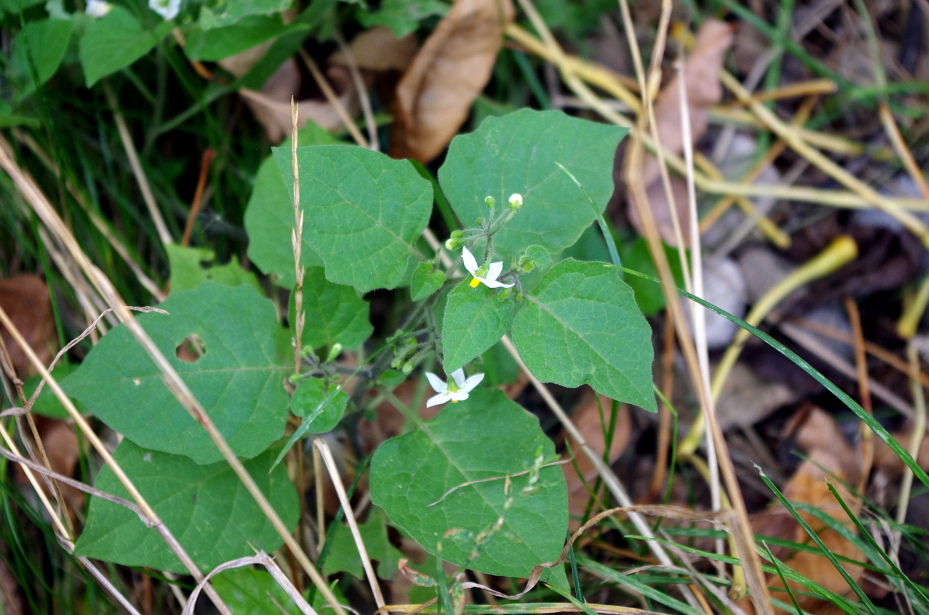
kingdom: Plantae
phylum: Tracheophyta
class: Magnoliopsida
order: Solanales
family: Solanaceae
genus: Solanum
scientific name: Solanum nigrum
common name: Black nightshade
